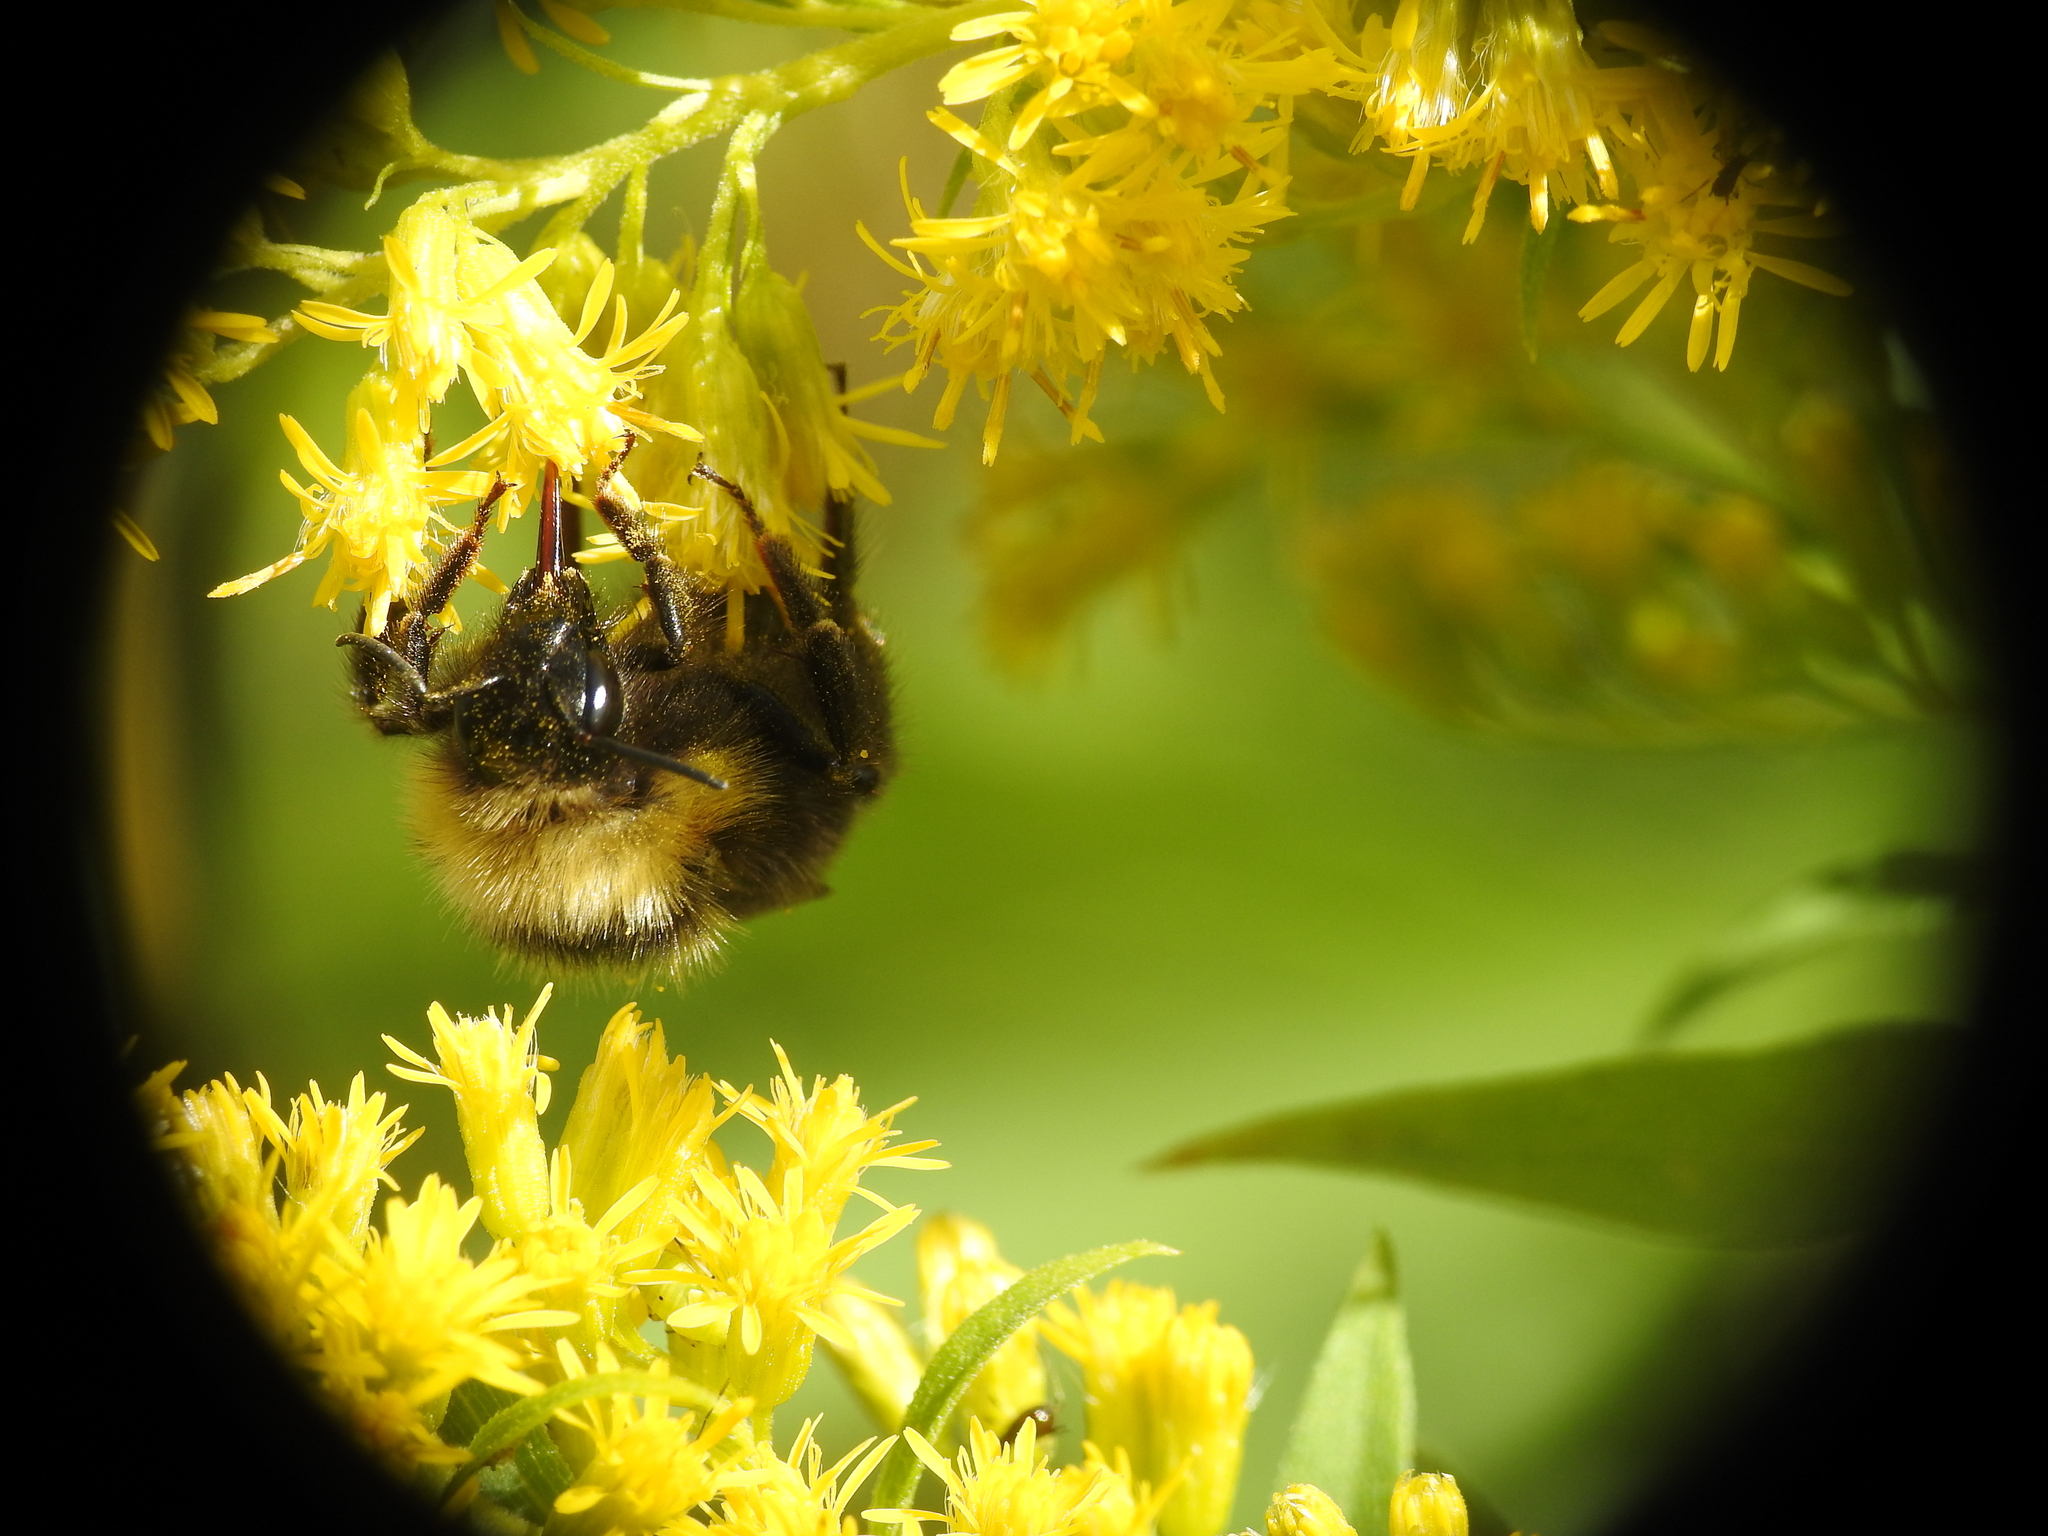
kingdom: Animalia
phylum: Arthropoda
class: Insecta
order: Hymenoptera
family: Apidae
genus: Bombus
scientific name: Bombus flavidus
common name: Fernald cuckoo bumble bee
